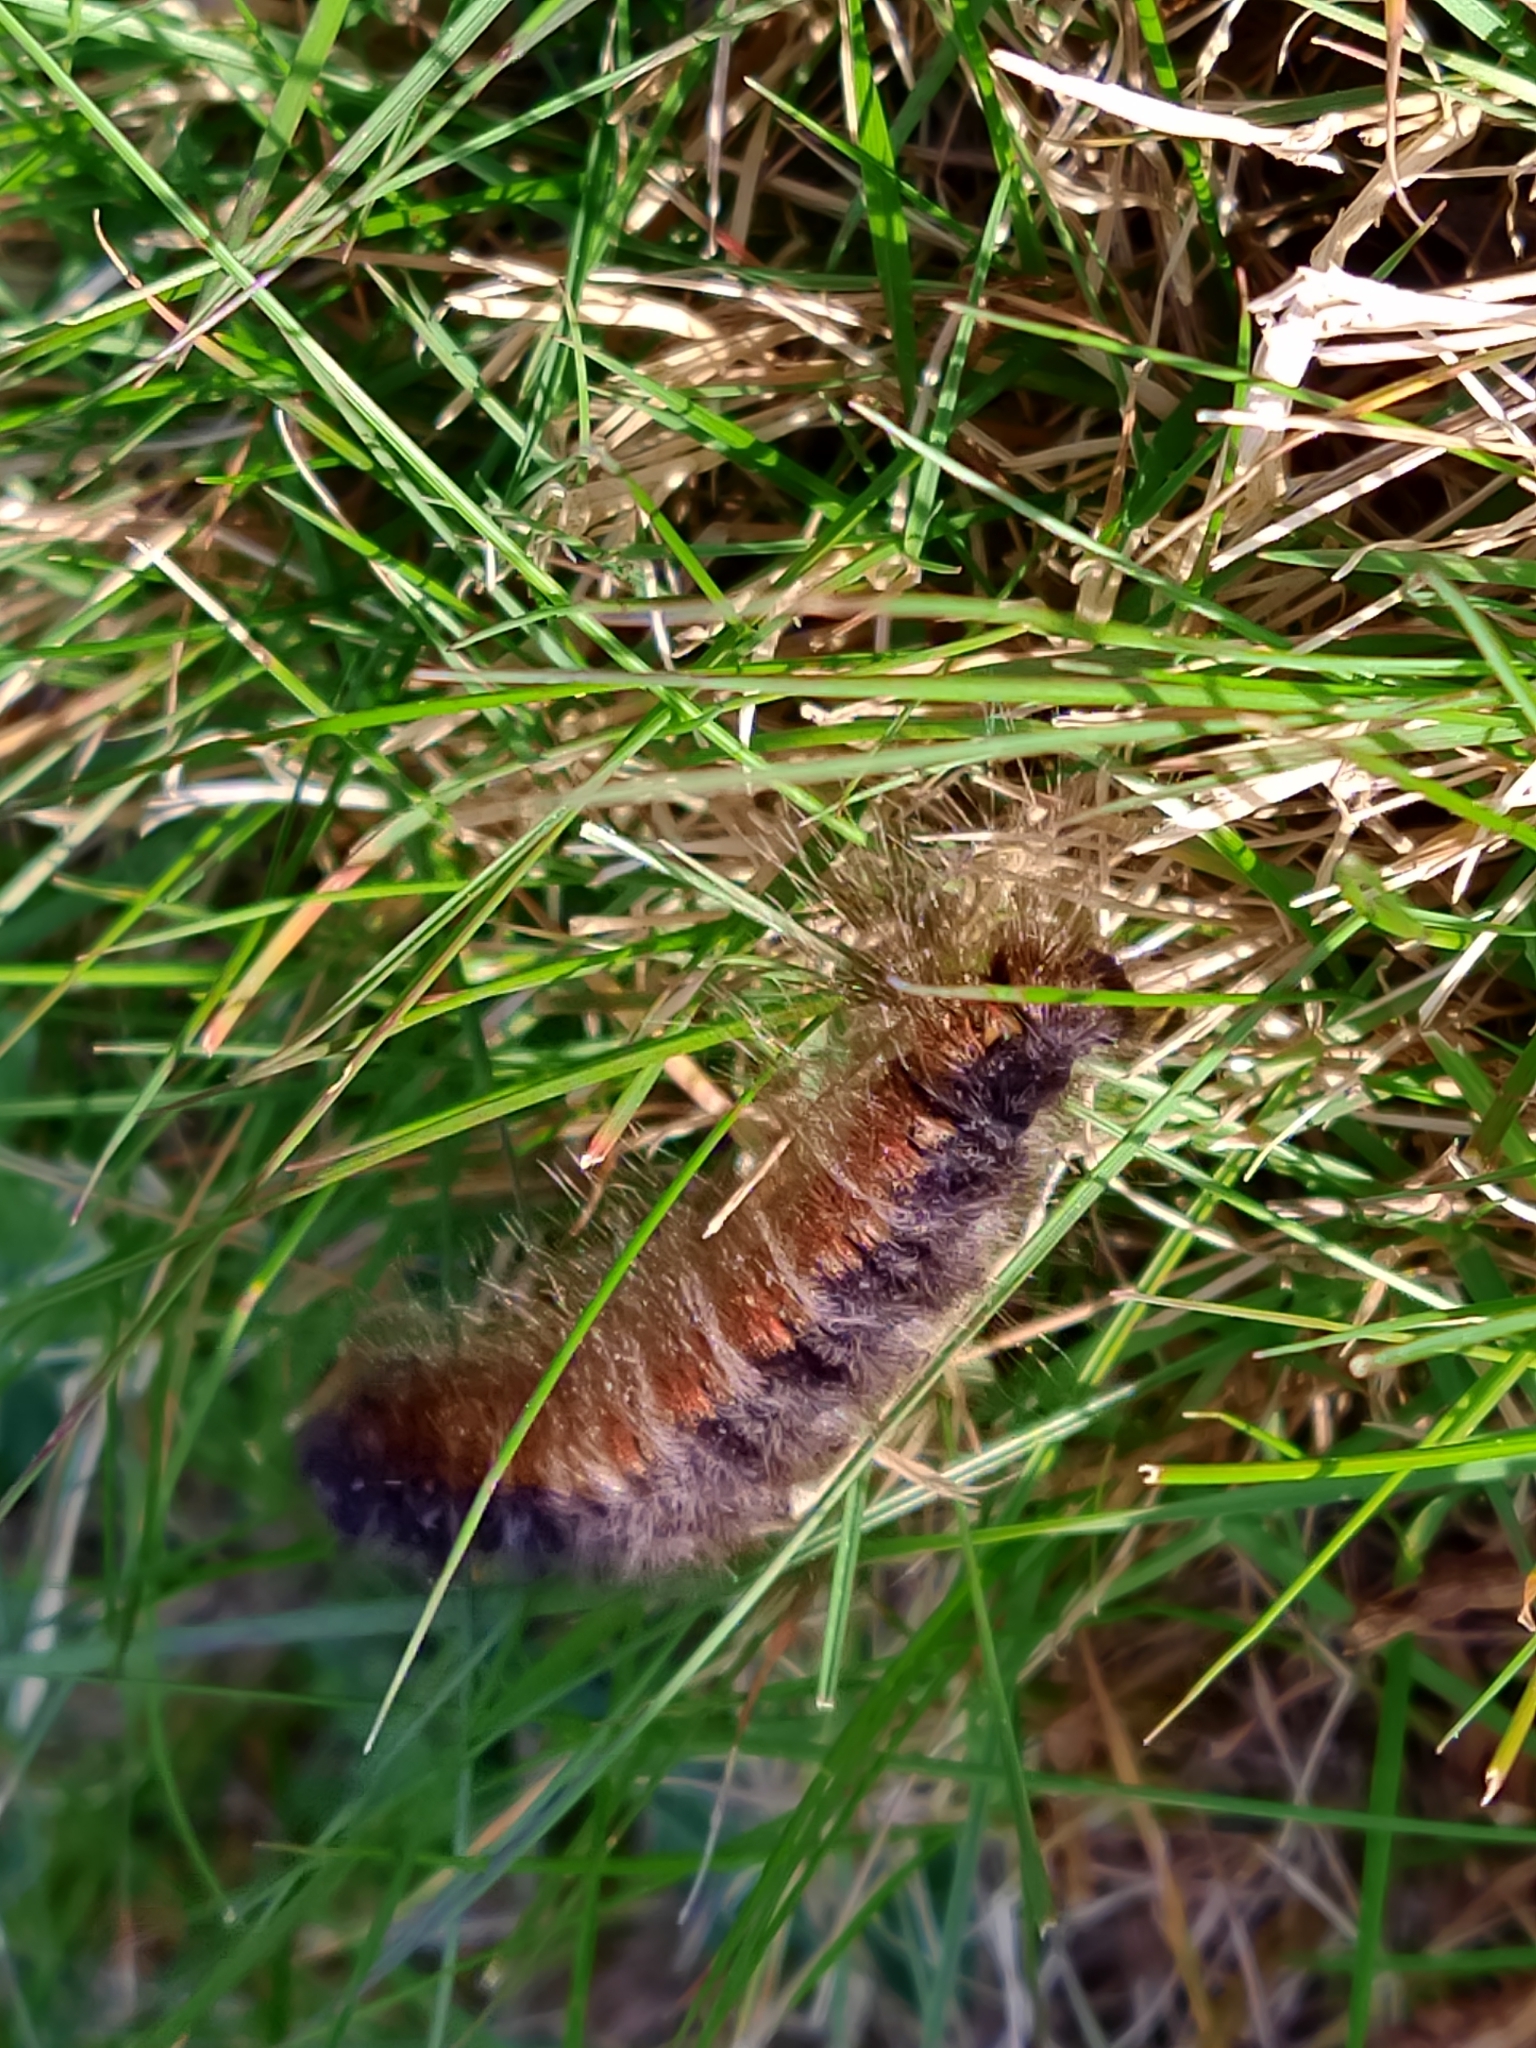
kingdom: Animalia
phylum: Arthropoda
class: Insecta
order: Lepidoptera
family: Lasiocampidae
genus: Macrothylacia
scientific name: Macrothylacia digramma
